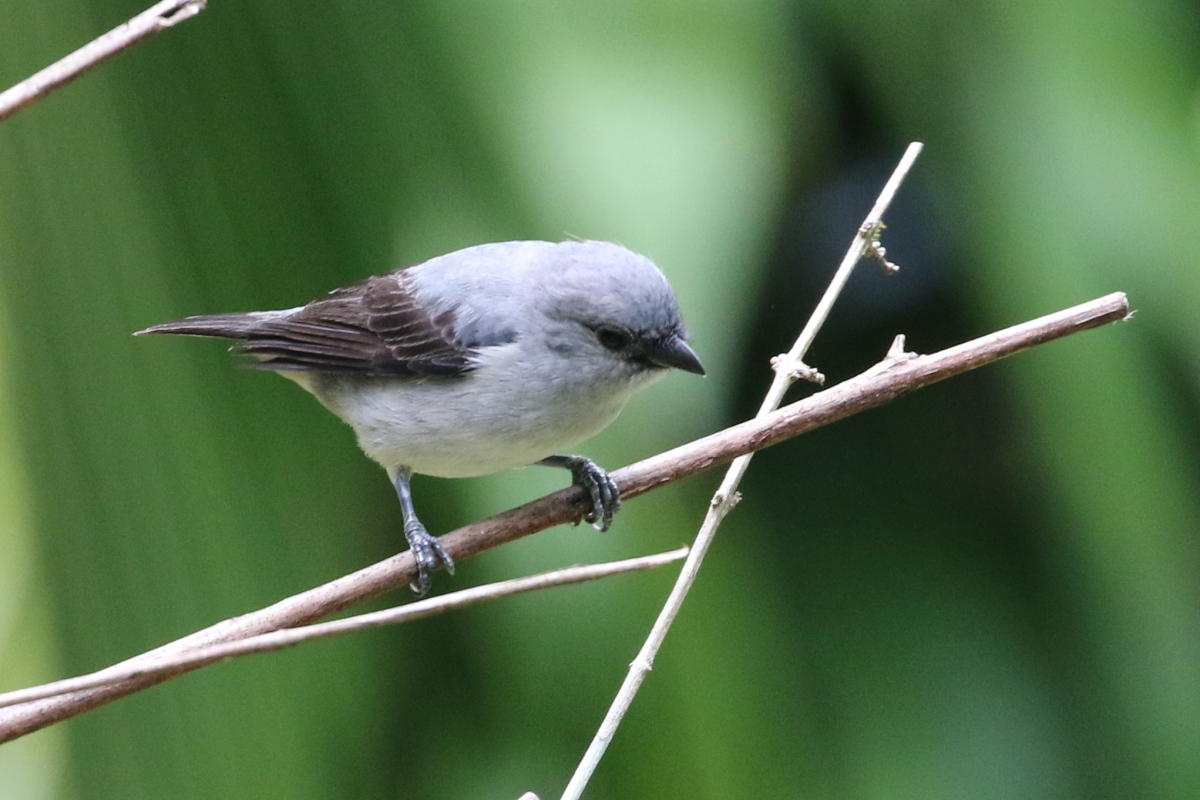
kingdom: Animalia
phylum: Chordata
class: Aves
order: Passeriformes
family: Thraupidae
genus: Tangara
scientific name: Tangara inornata
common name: Plain-colored tanager
